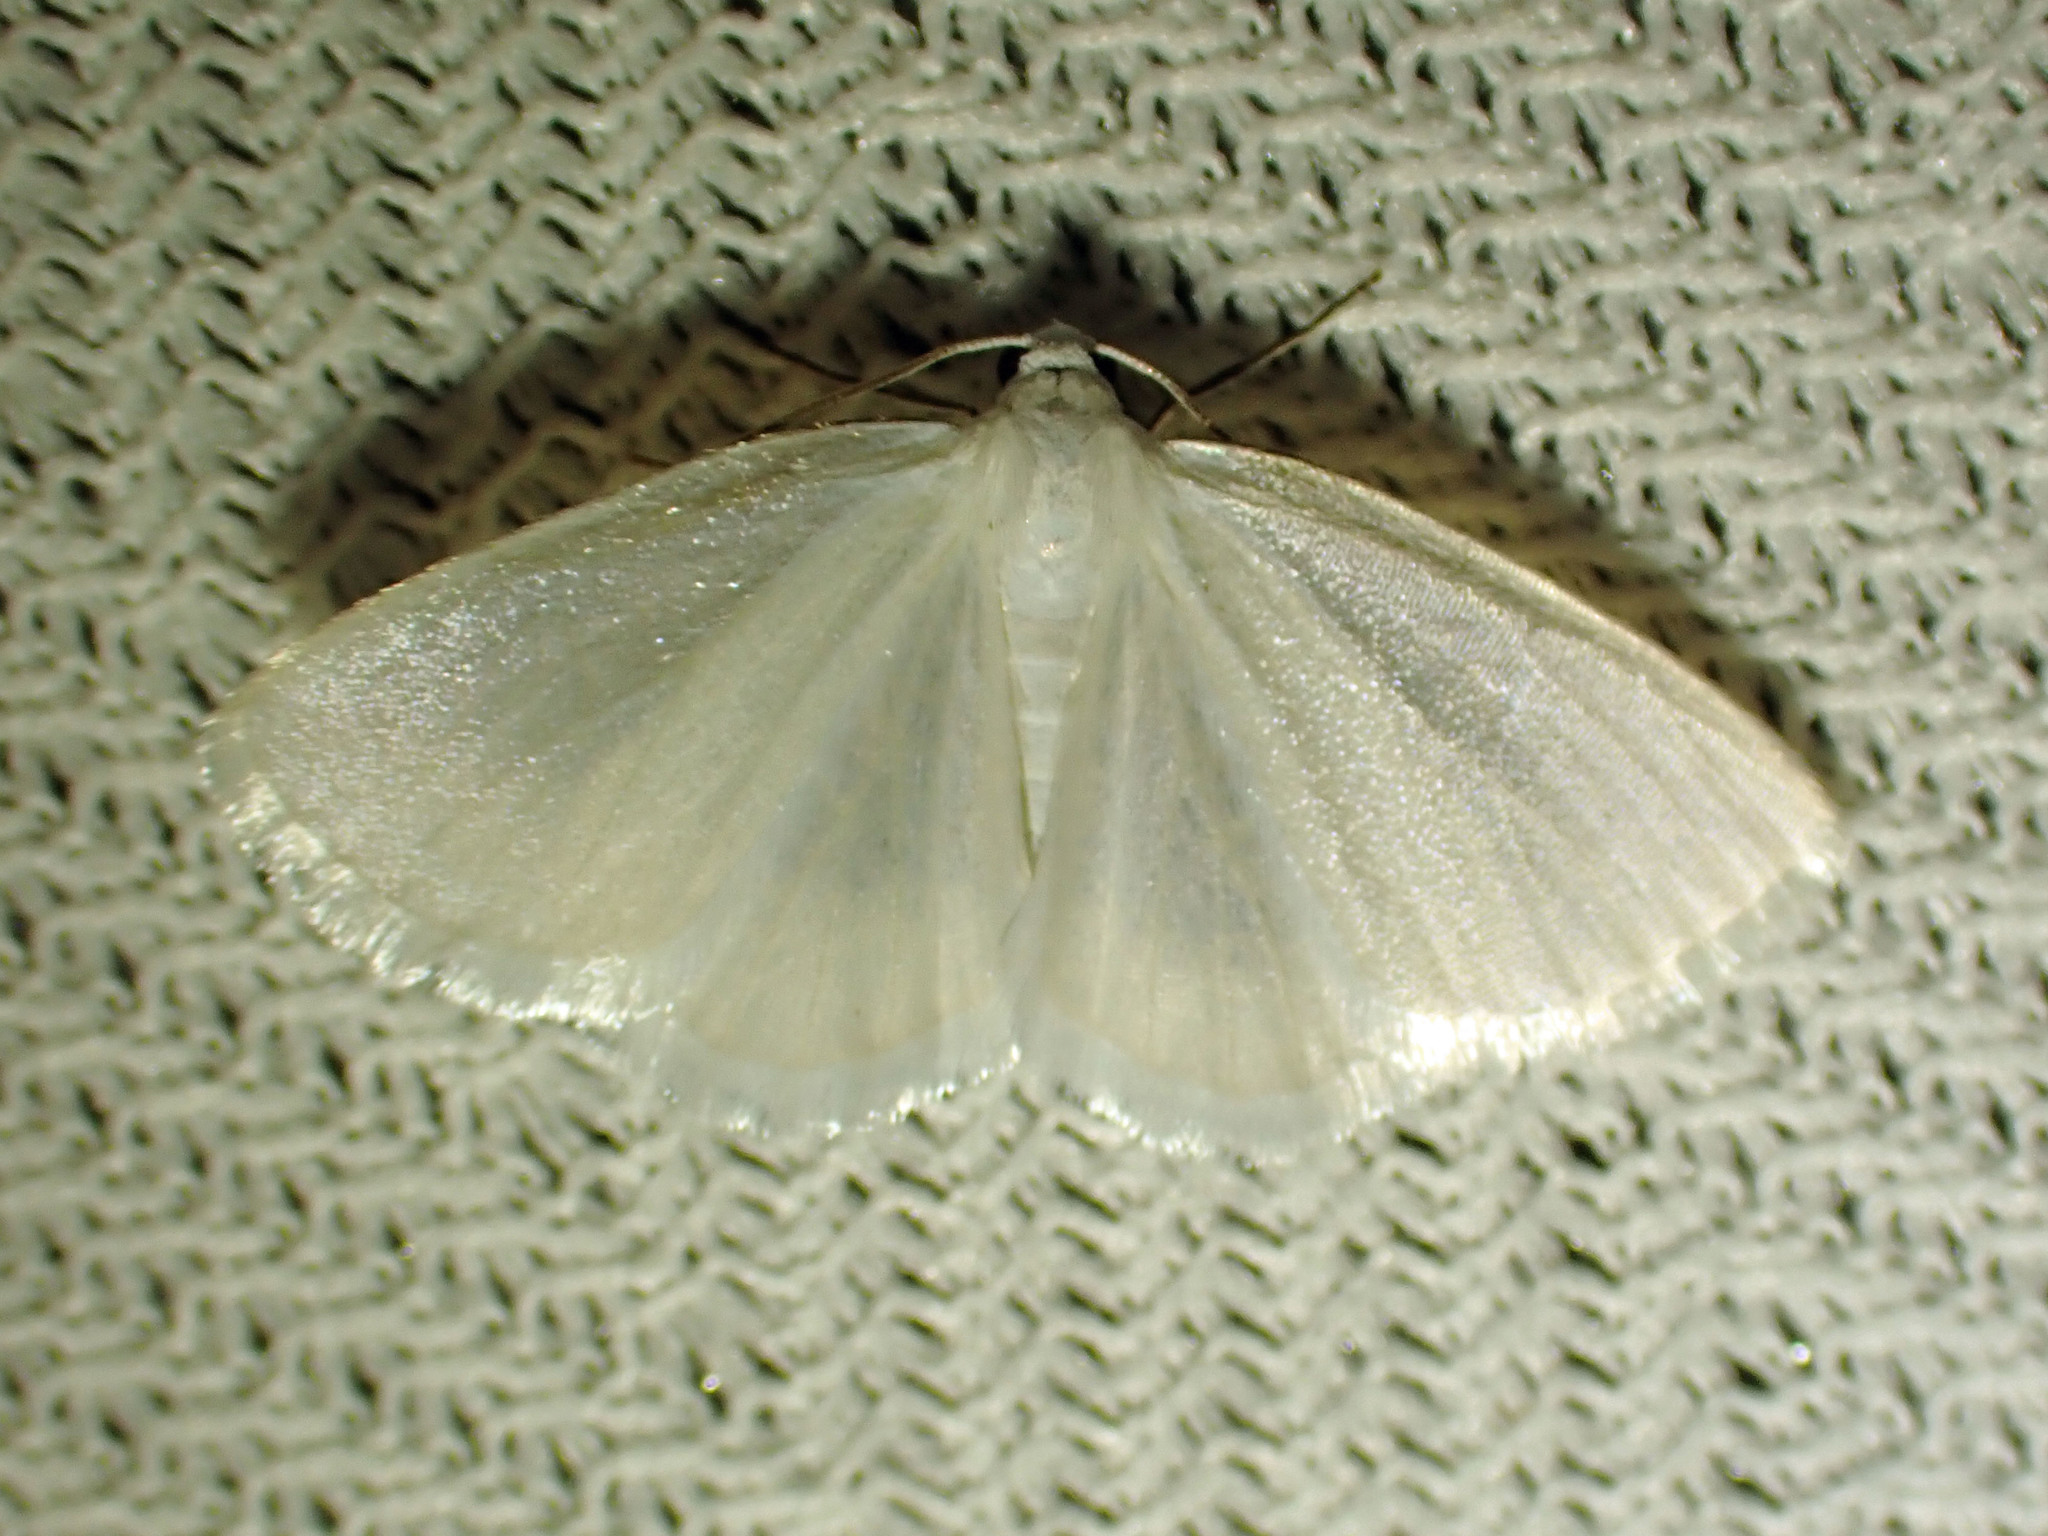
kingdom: Animalia
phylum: Arthropoda
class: Insecta
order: Lepidoptera
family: Geometridae
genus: Lomographa
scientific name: Lomographa vestaliata
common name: White spring moth
